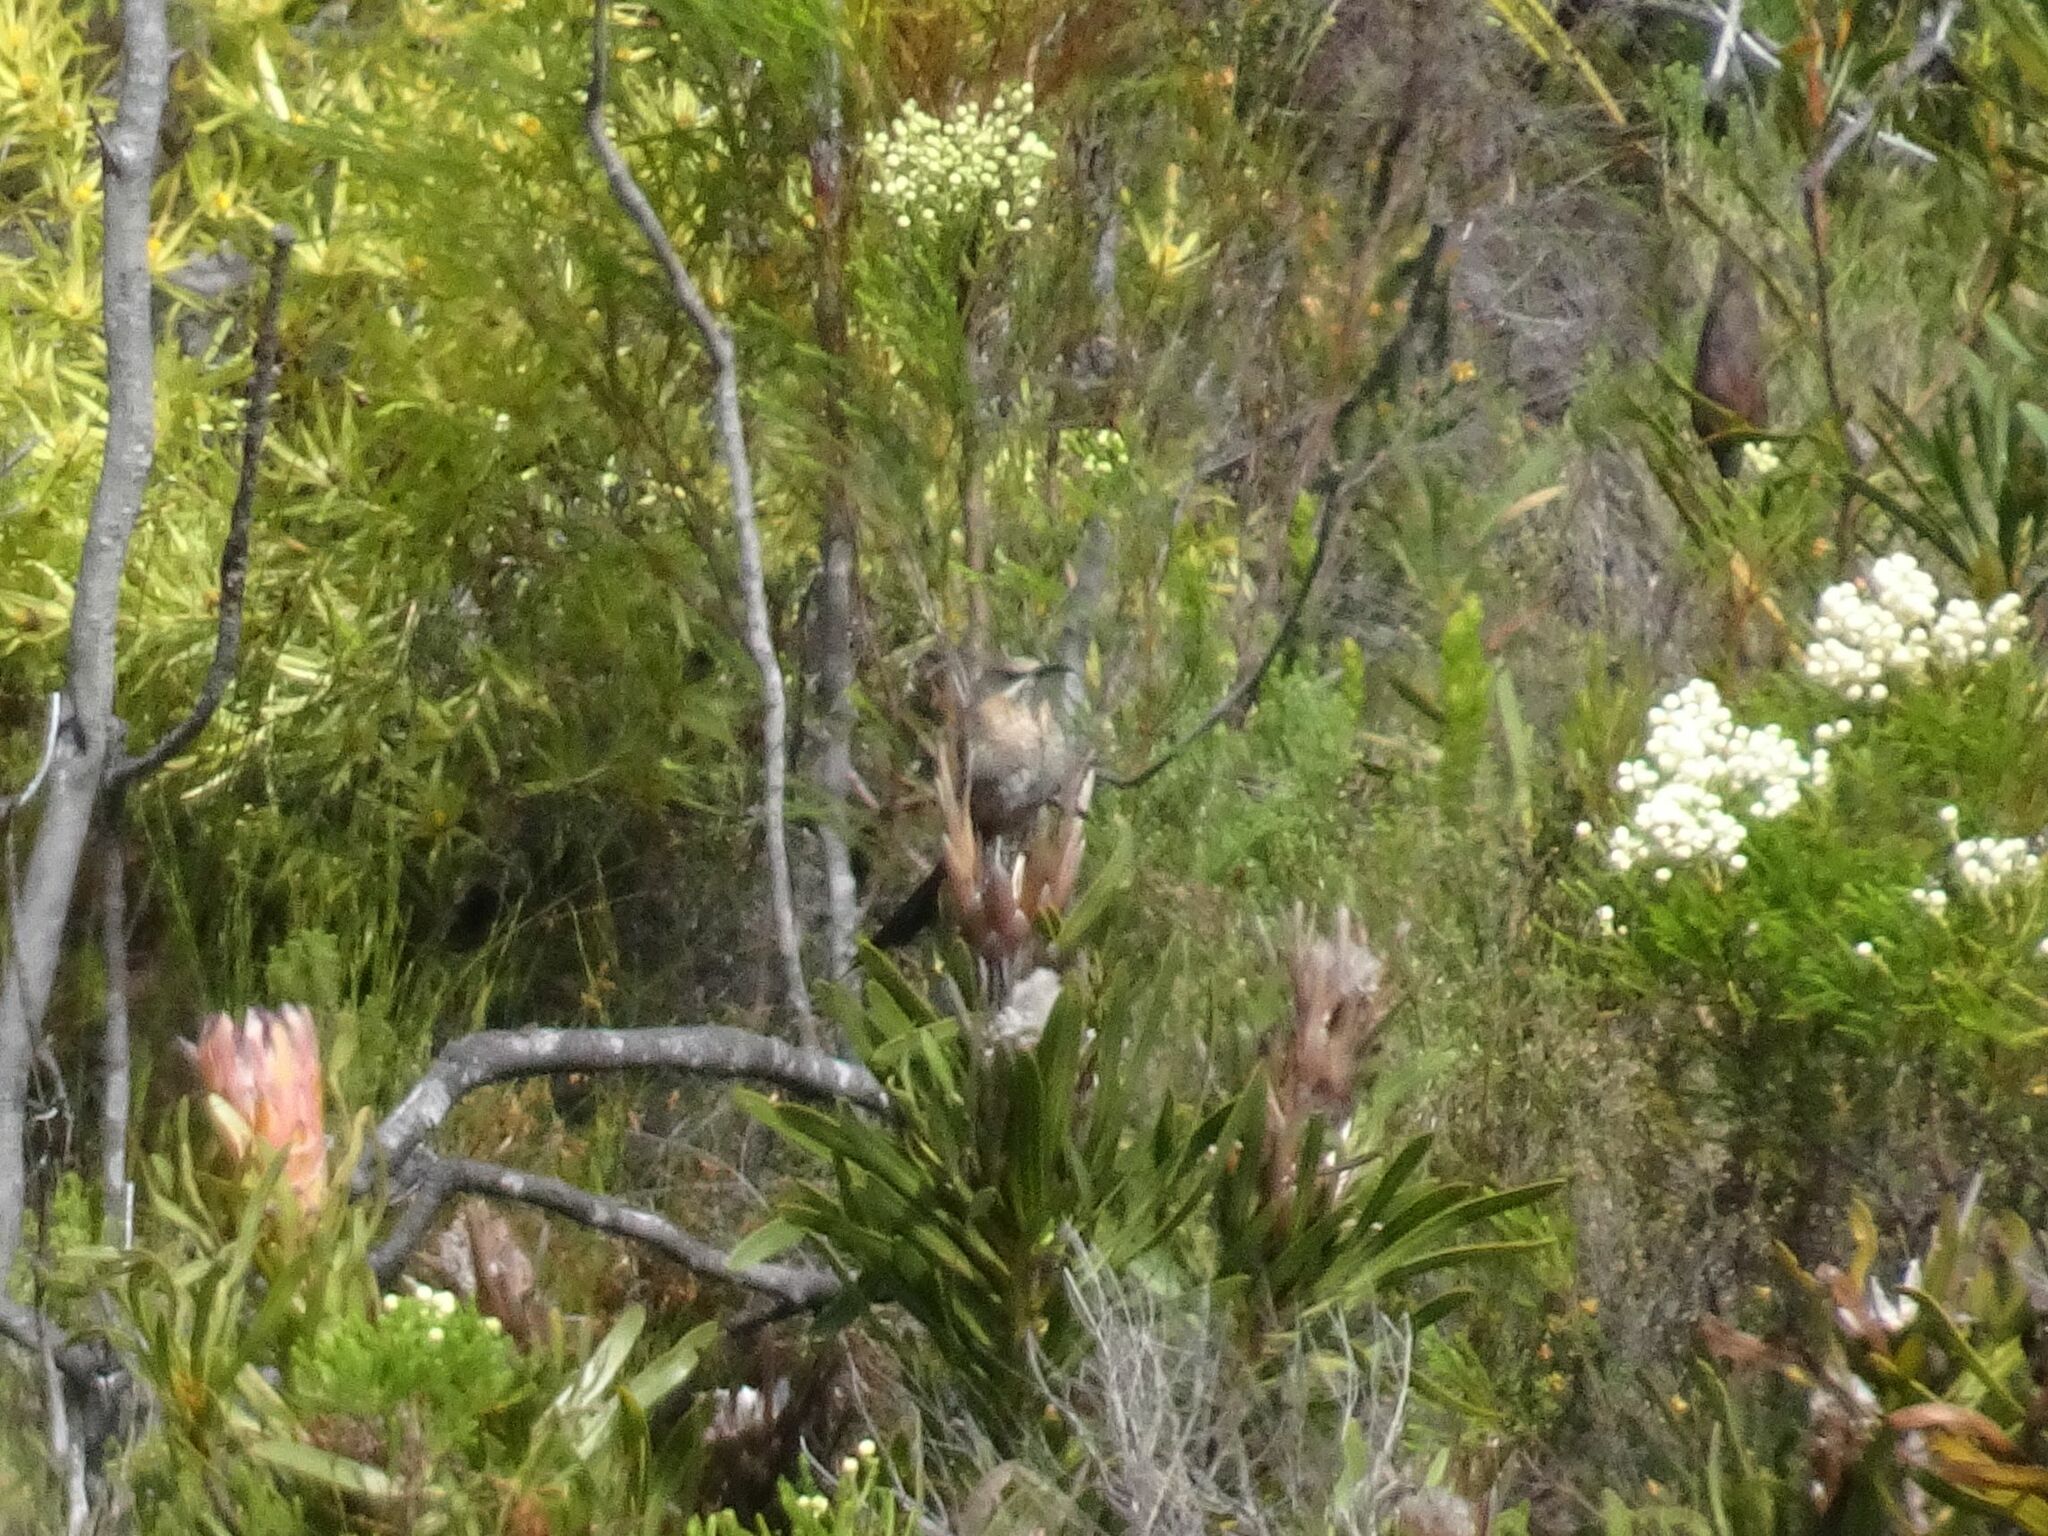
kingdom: Animalia
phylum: Chordata
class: Aves
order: Passeriformes
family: Promeropidae
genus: Promerops
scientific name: Promerops cafer
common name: Cape sugarbird
